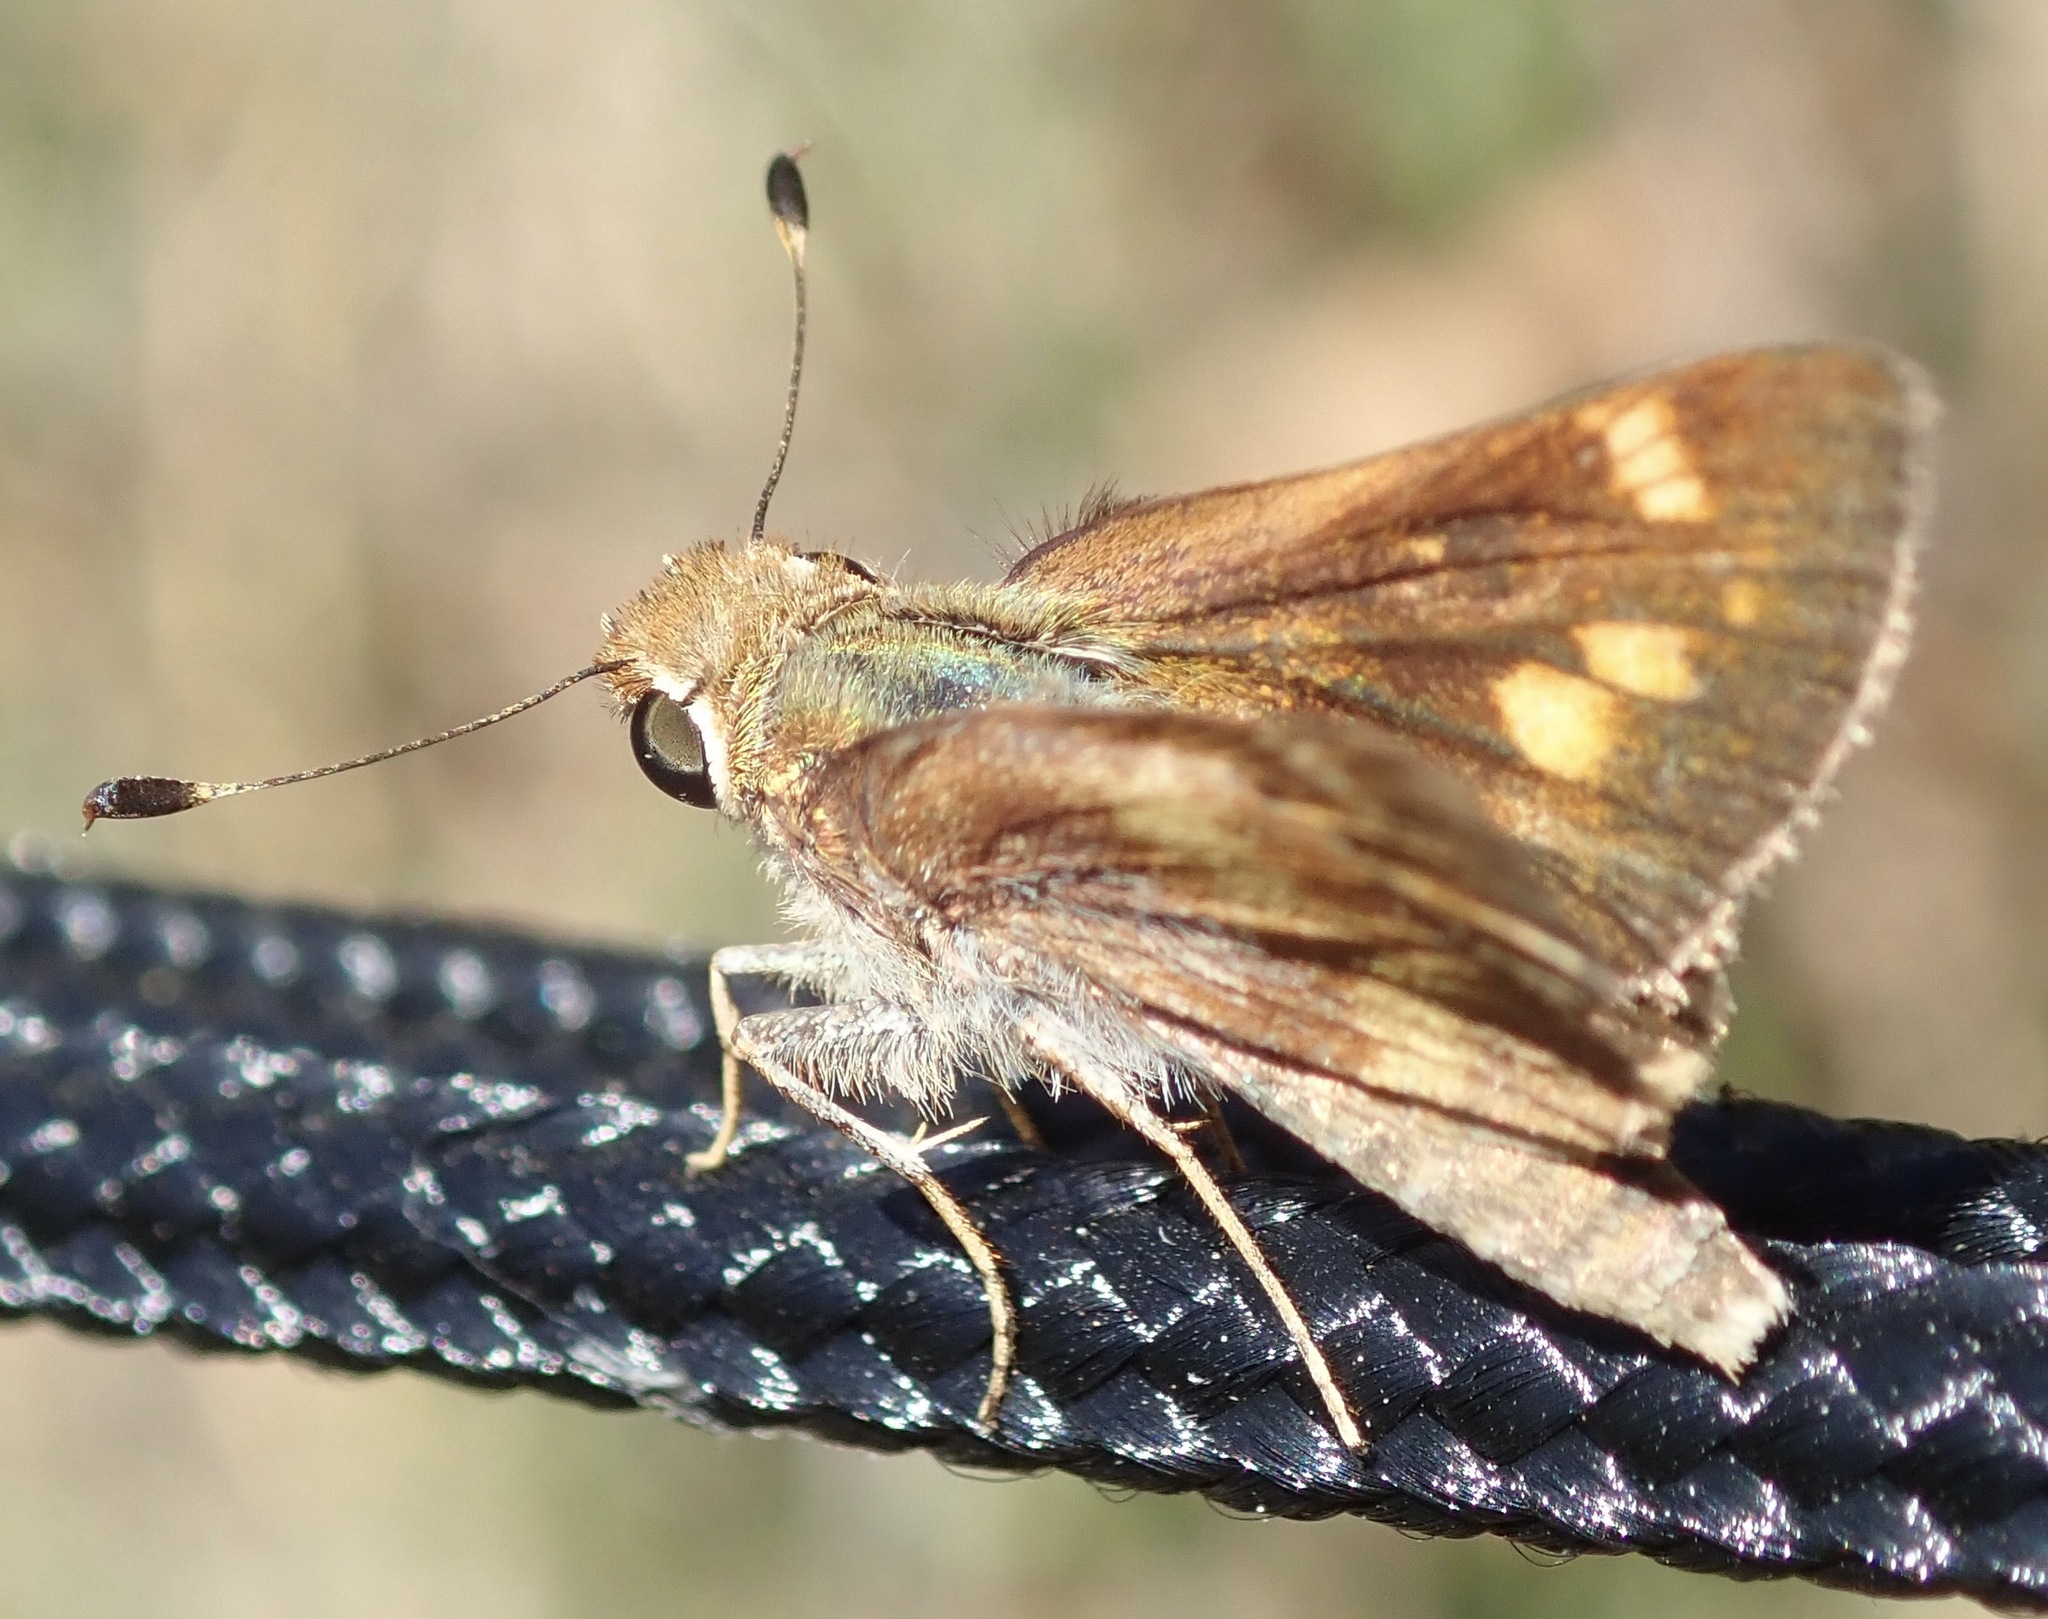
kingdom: Animalia
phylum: Arthropoda
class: Insecta
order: Lepidoptera
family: Hesperiidae
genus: Lon
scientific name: Lon melane
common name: Umber skipper
